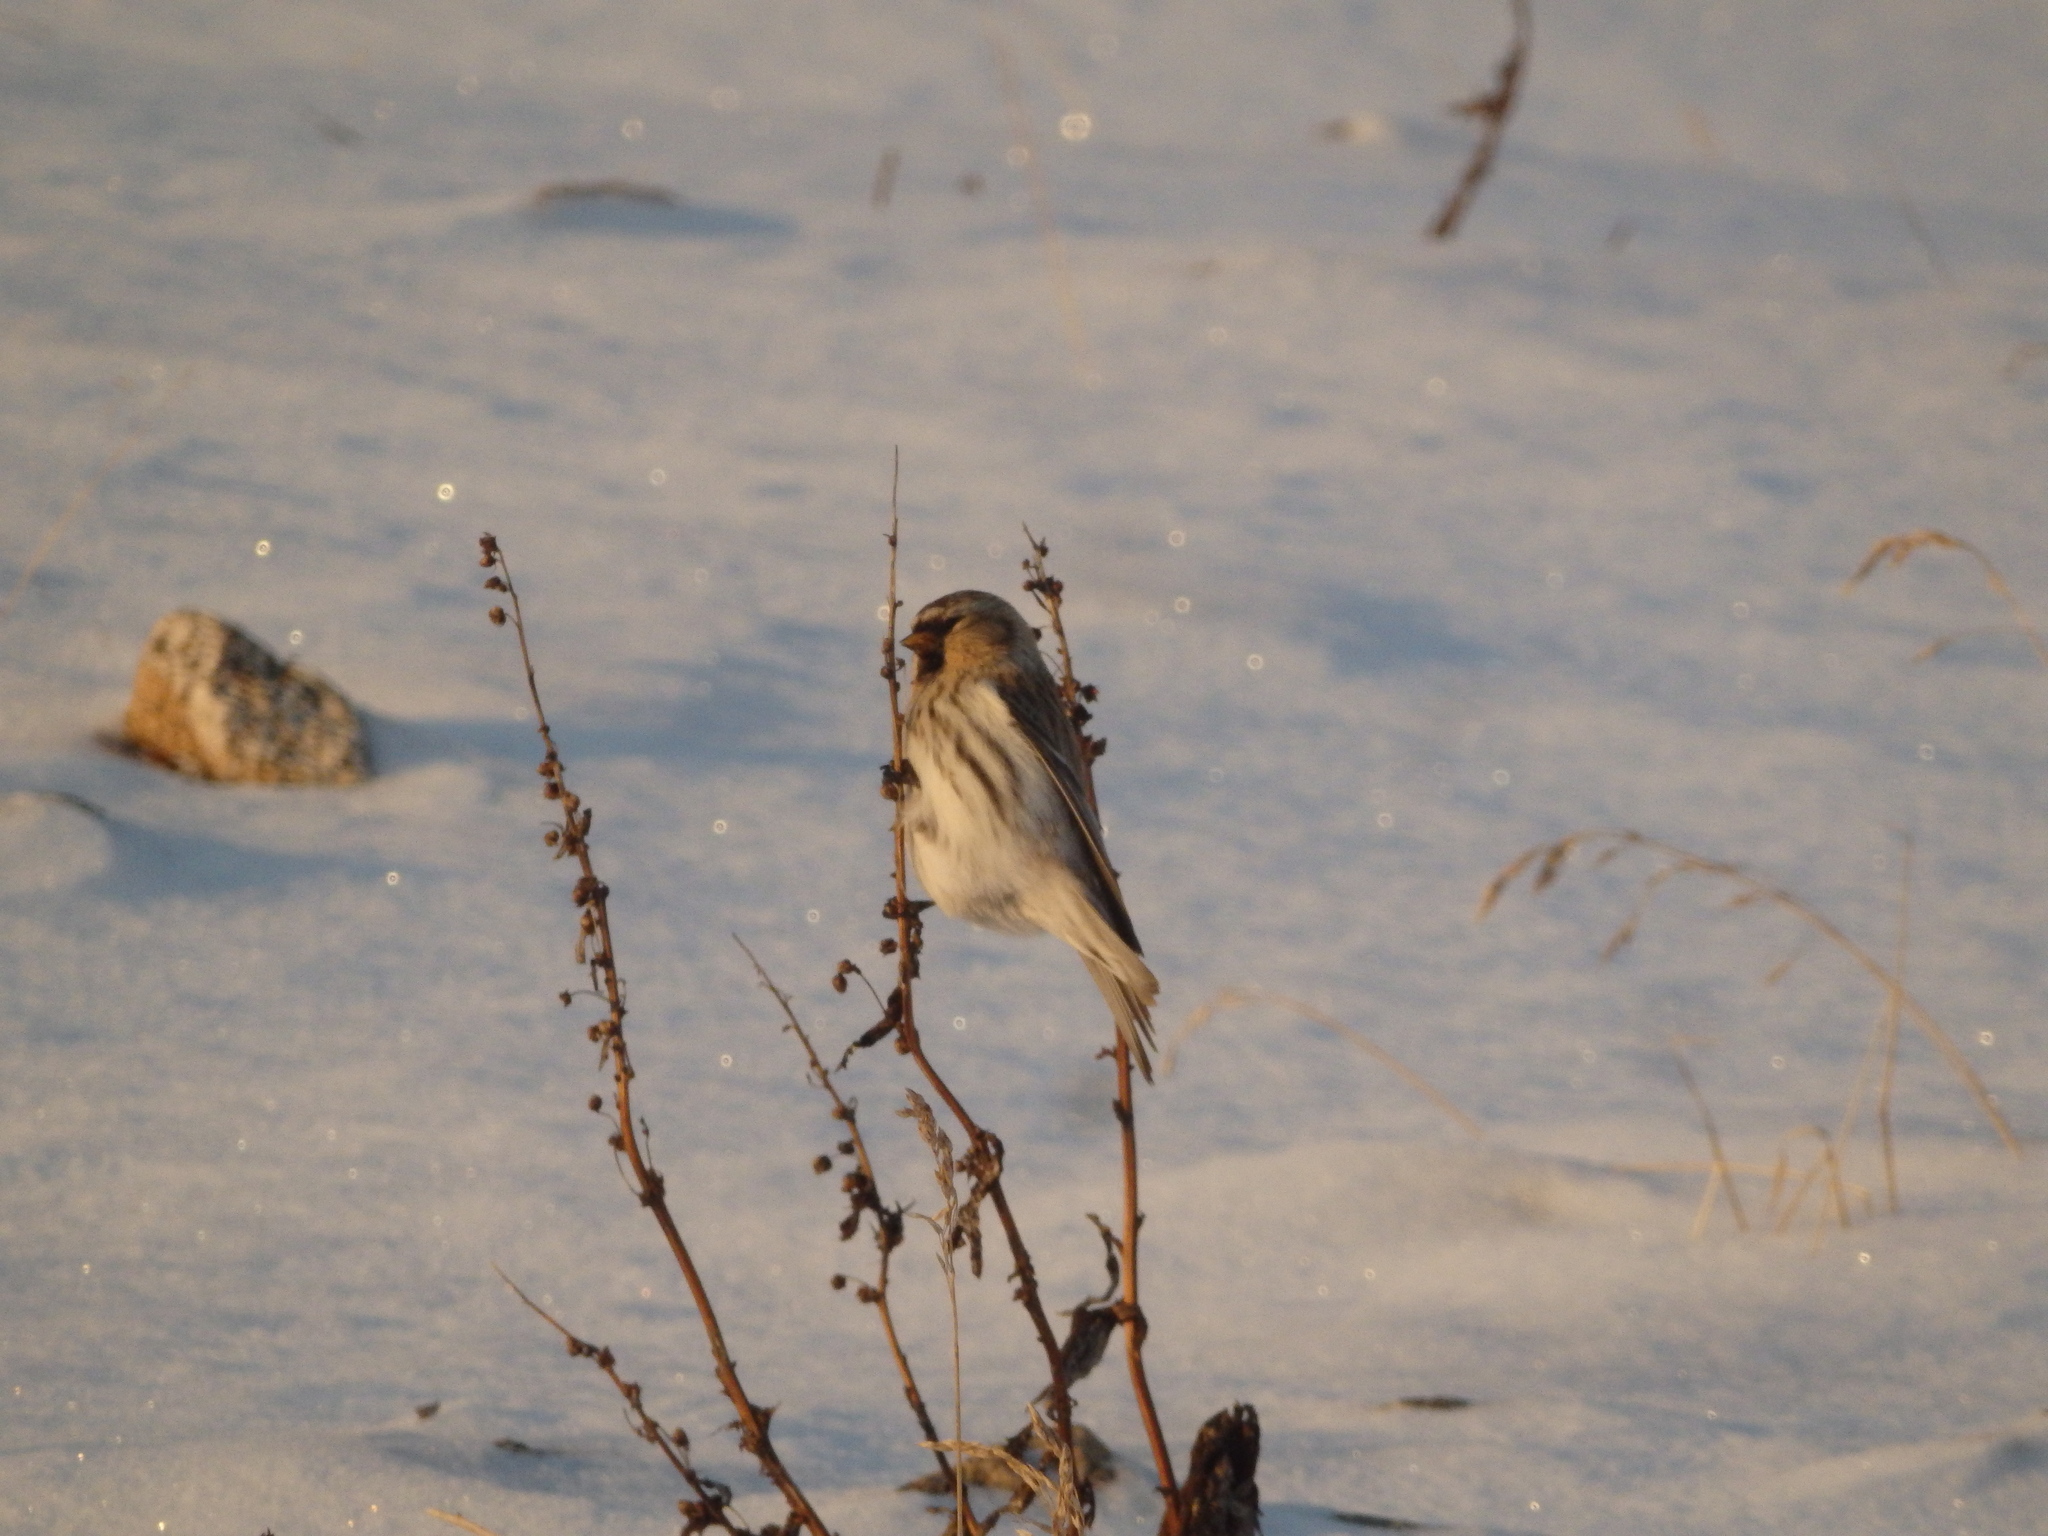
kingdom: Animalia
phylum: Chordata
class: Aves
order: Passeriformes
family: Fringillidae
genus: Acanthis
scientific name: Acanthis flammea
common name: Common redpoll
